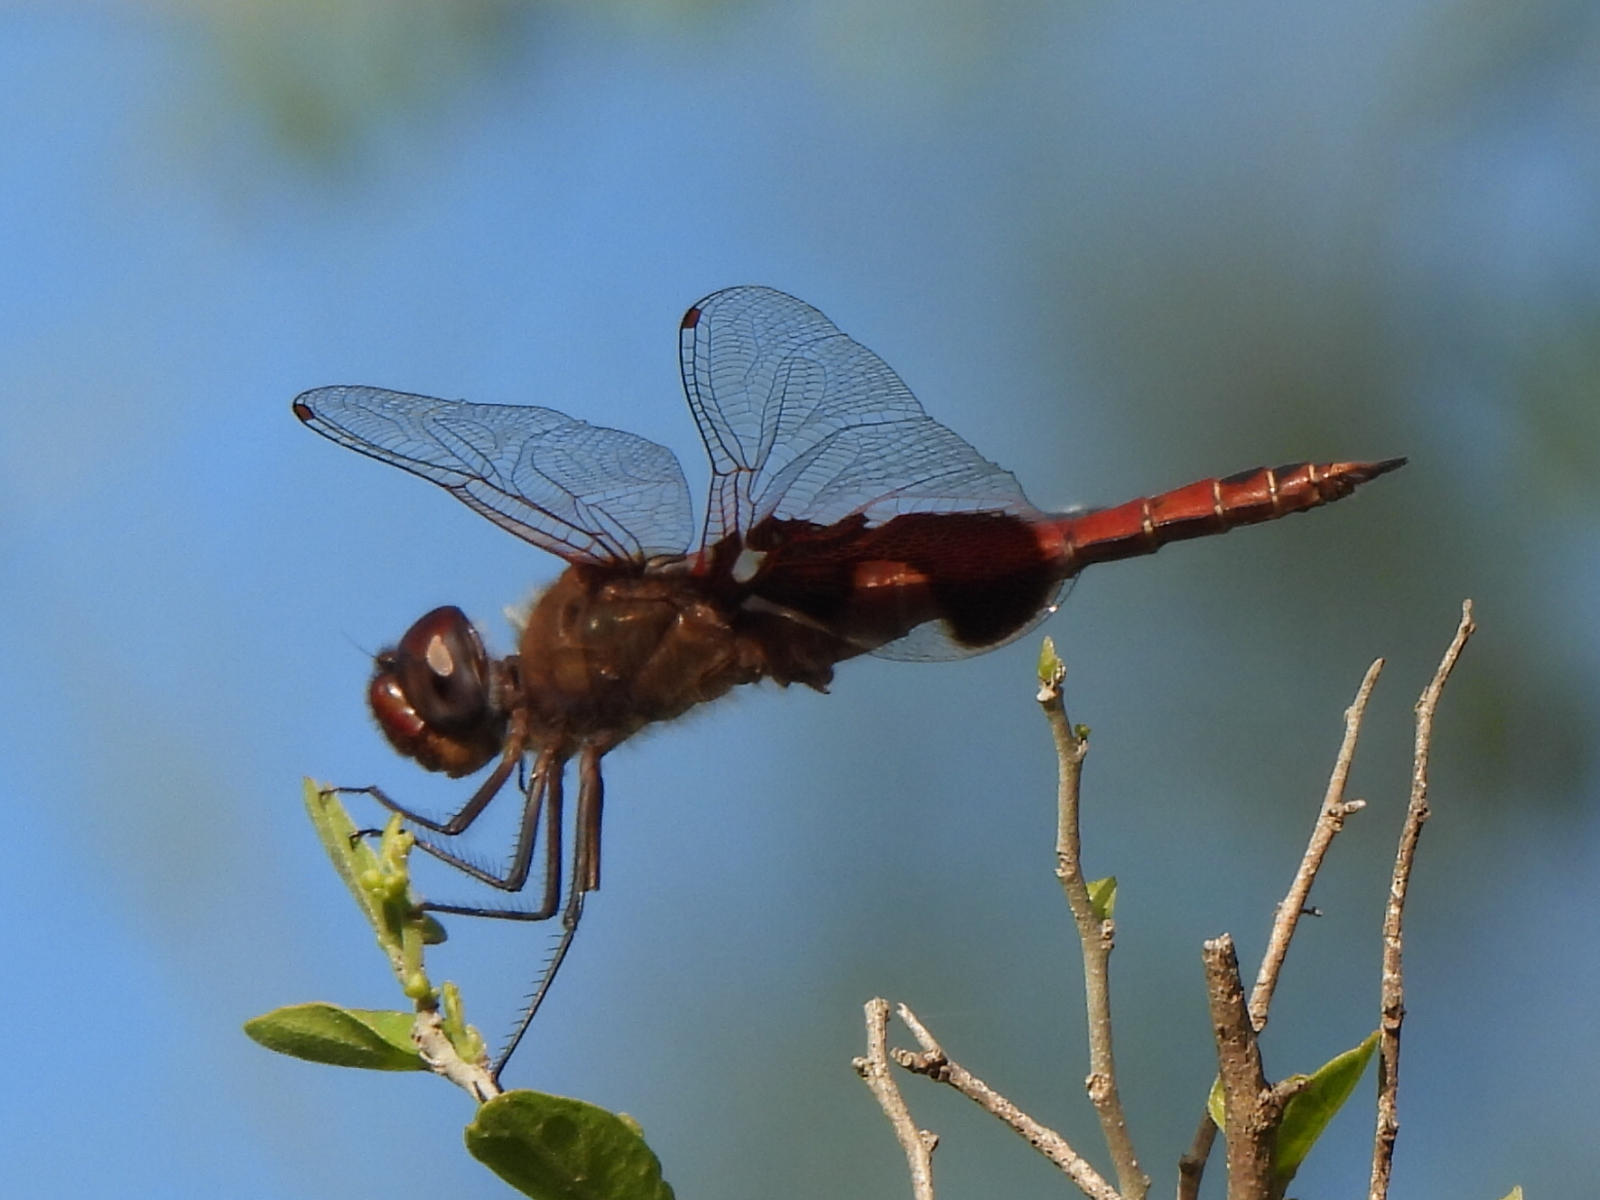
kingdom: Animalia
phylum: Arthropoda
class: Insecta
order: Odonata
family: Libellulidae
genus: Tramea
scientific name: Tramea onusta
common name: Red saddlebags
